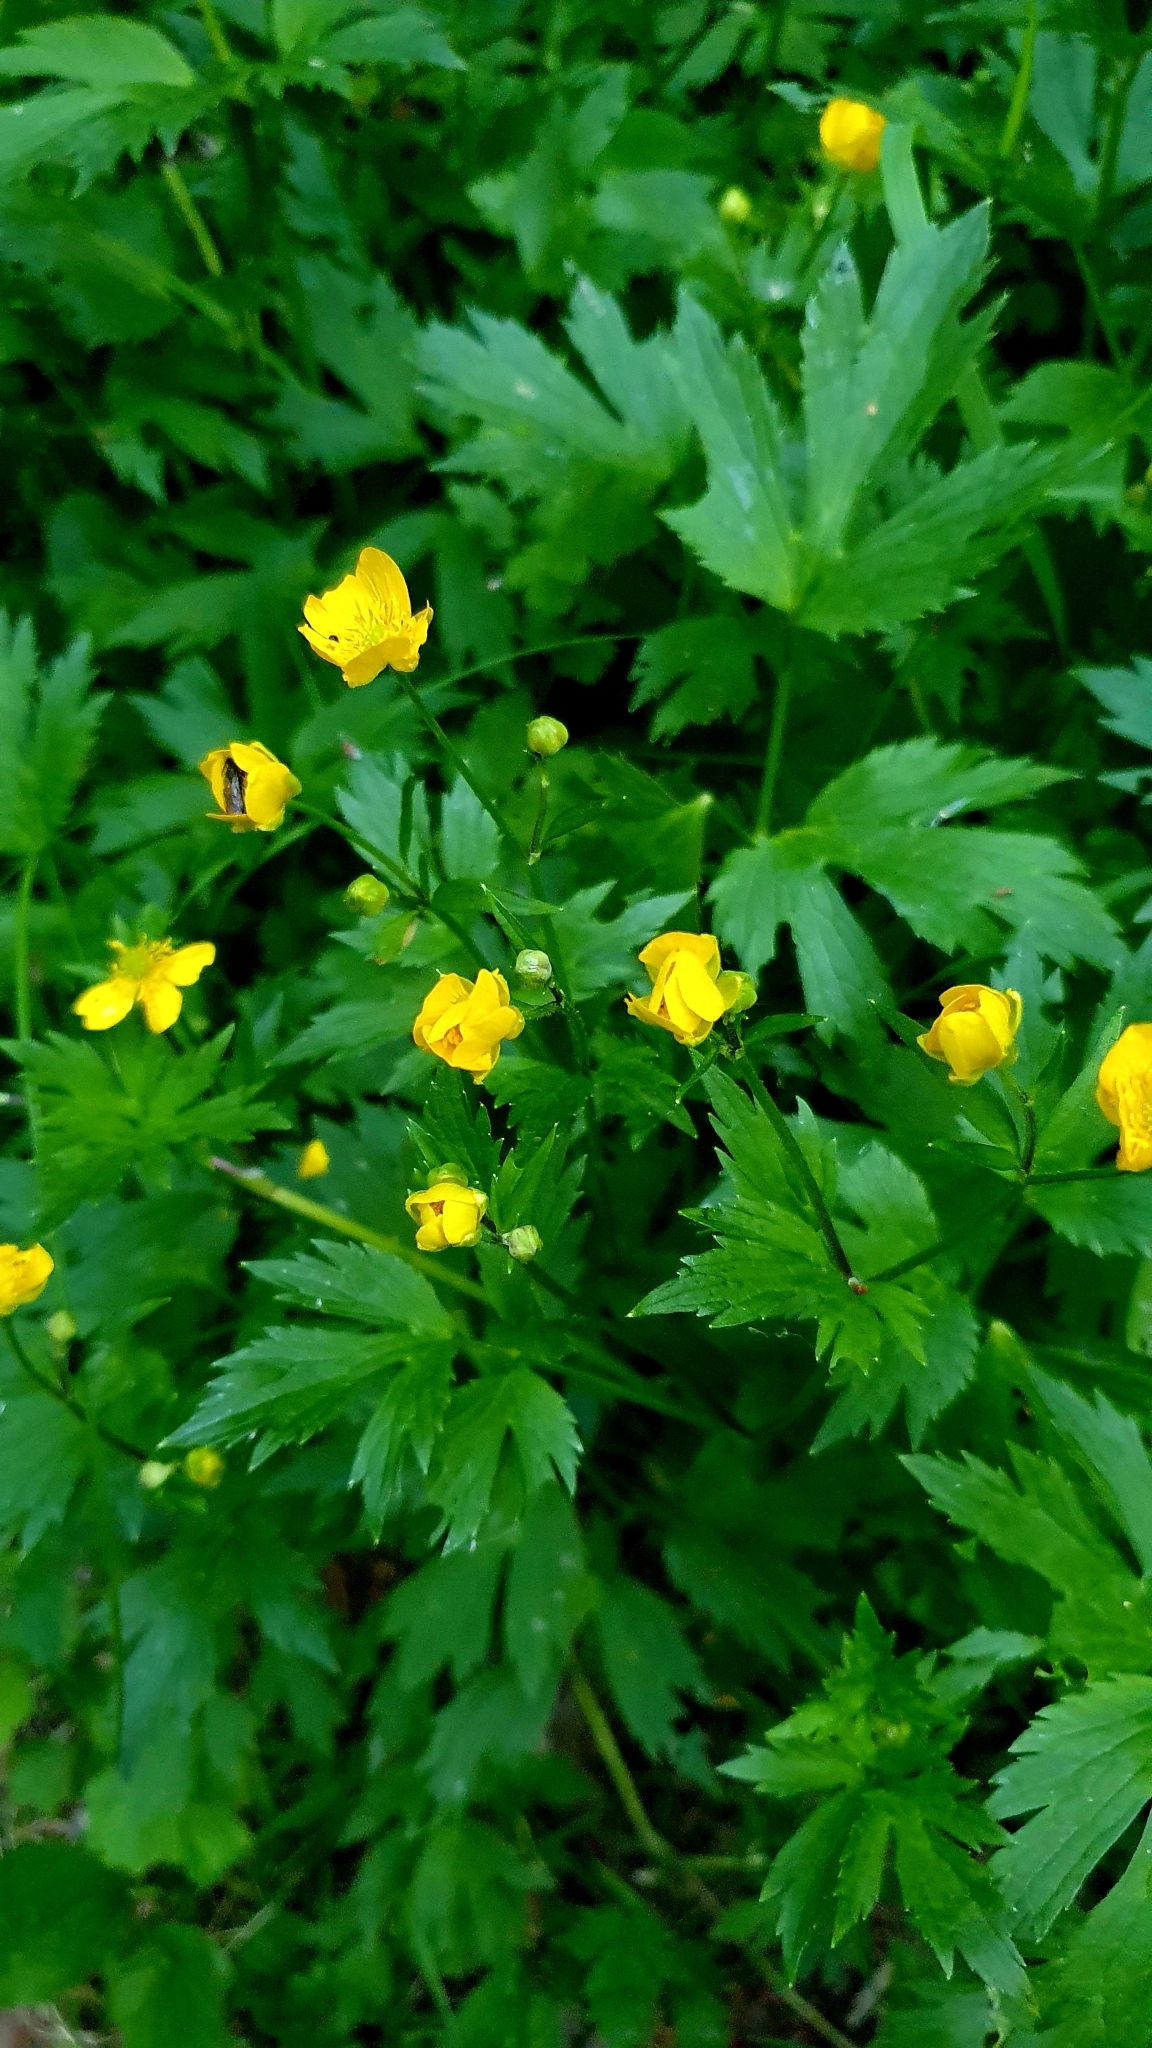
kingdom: Plantae
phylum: Tracheophyta
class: Magnoliopsida
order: Ranunculales
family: Ranunculaceae
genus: Ranunculus
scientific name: Ranunculus repens
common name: Creeping buttercup
